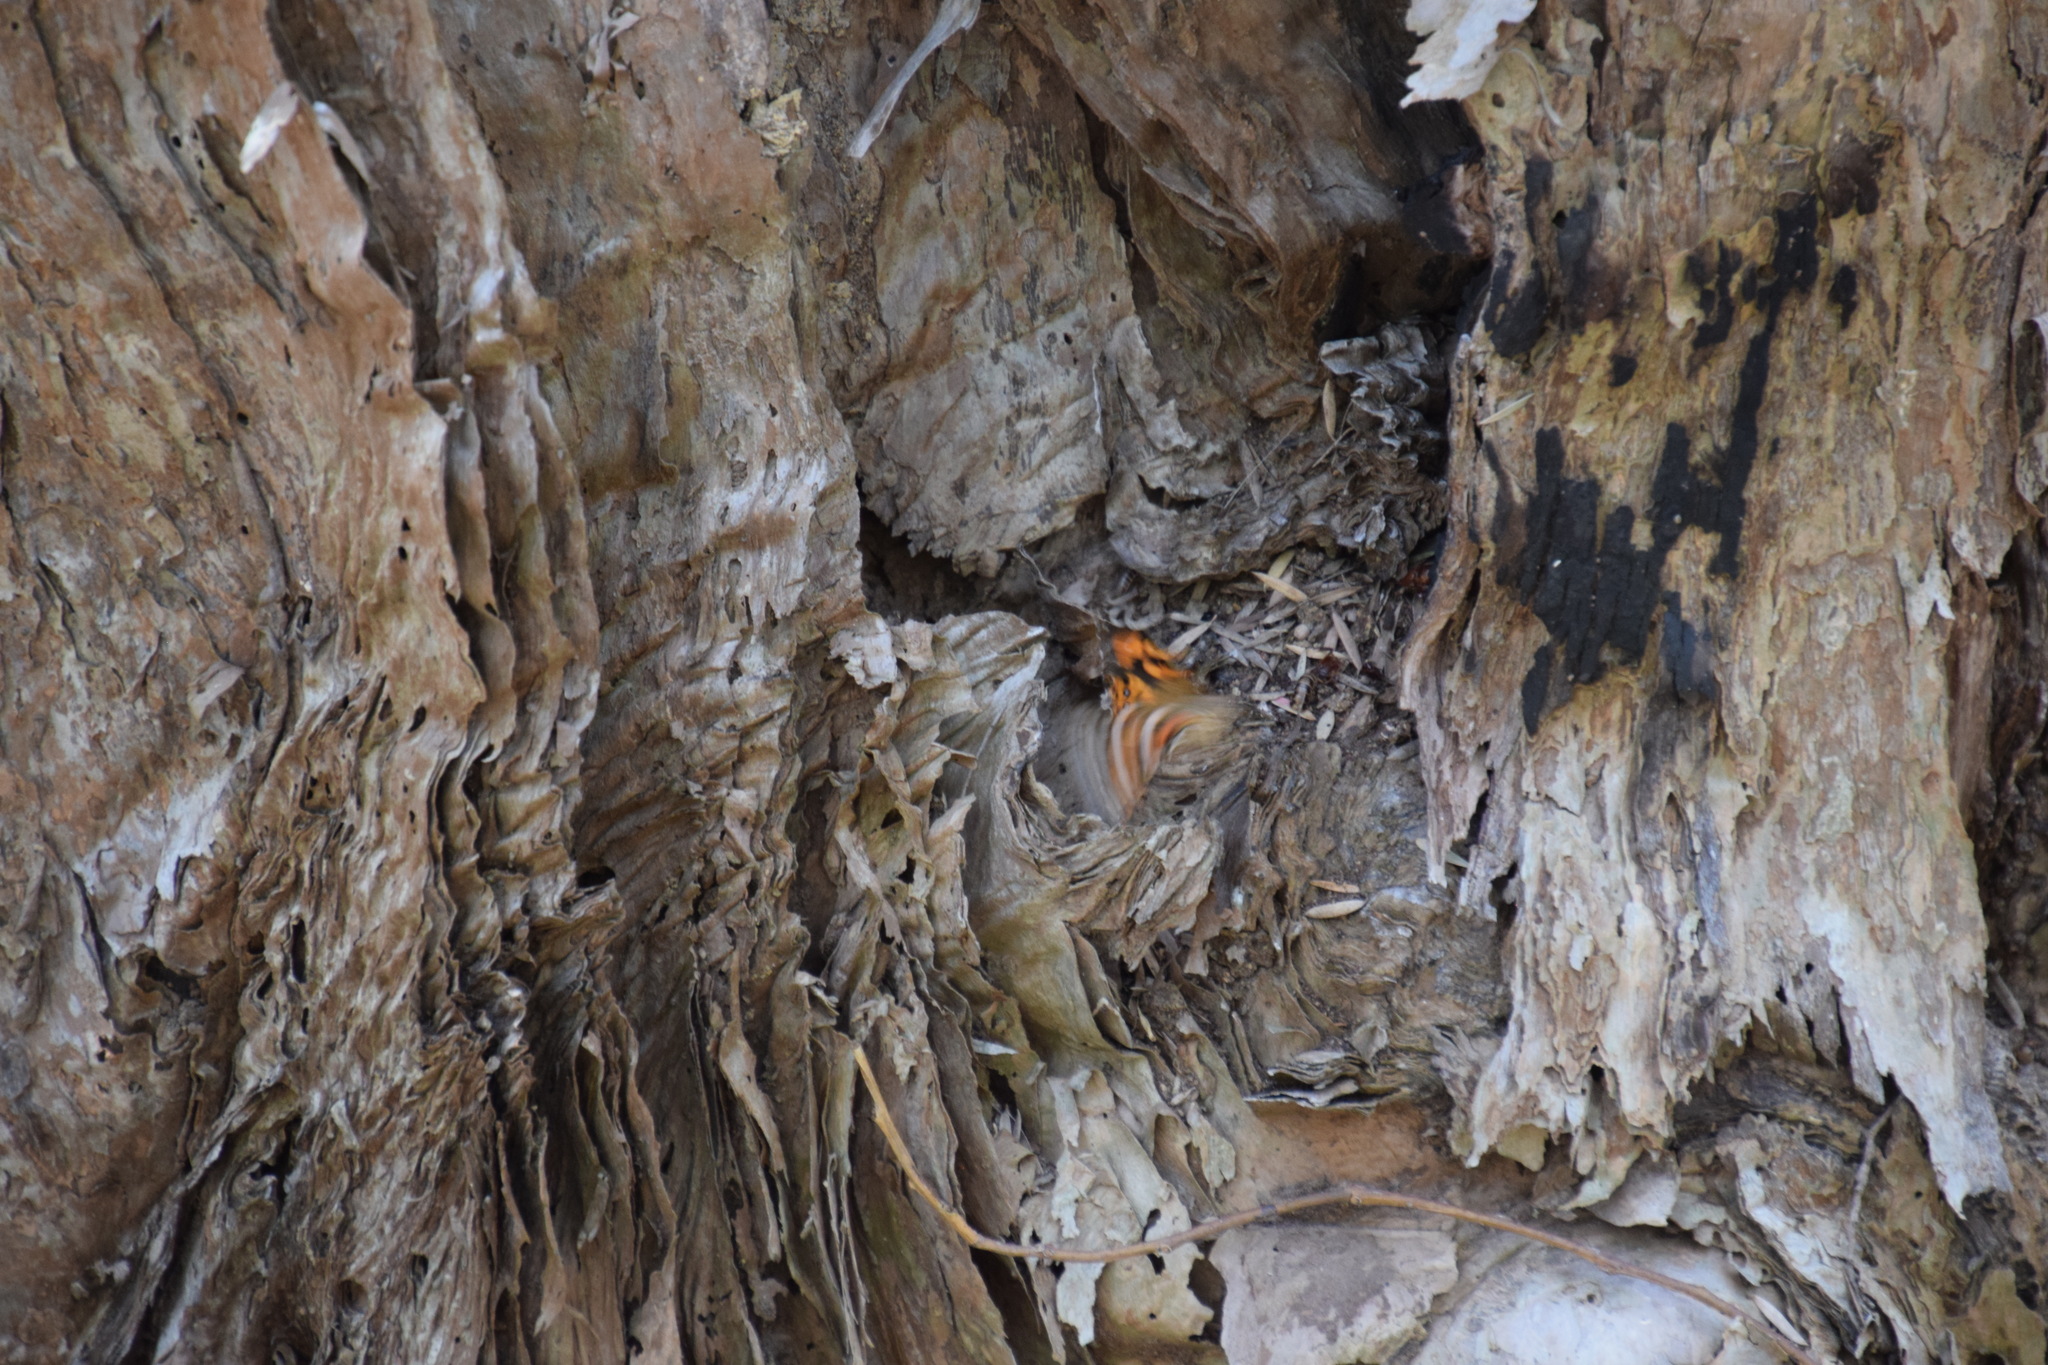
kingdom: Animalia
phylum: Arthropoda
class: Insecta
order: Lepidoptera
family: Nymphalidae
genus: Vanessa
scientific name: Vanessa kershawi
